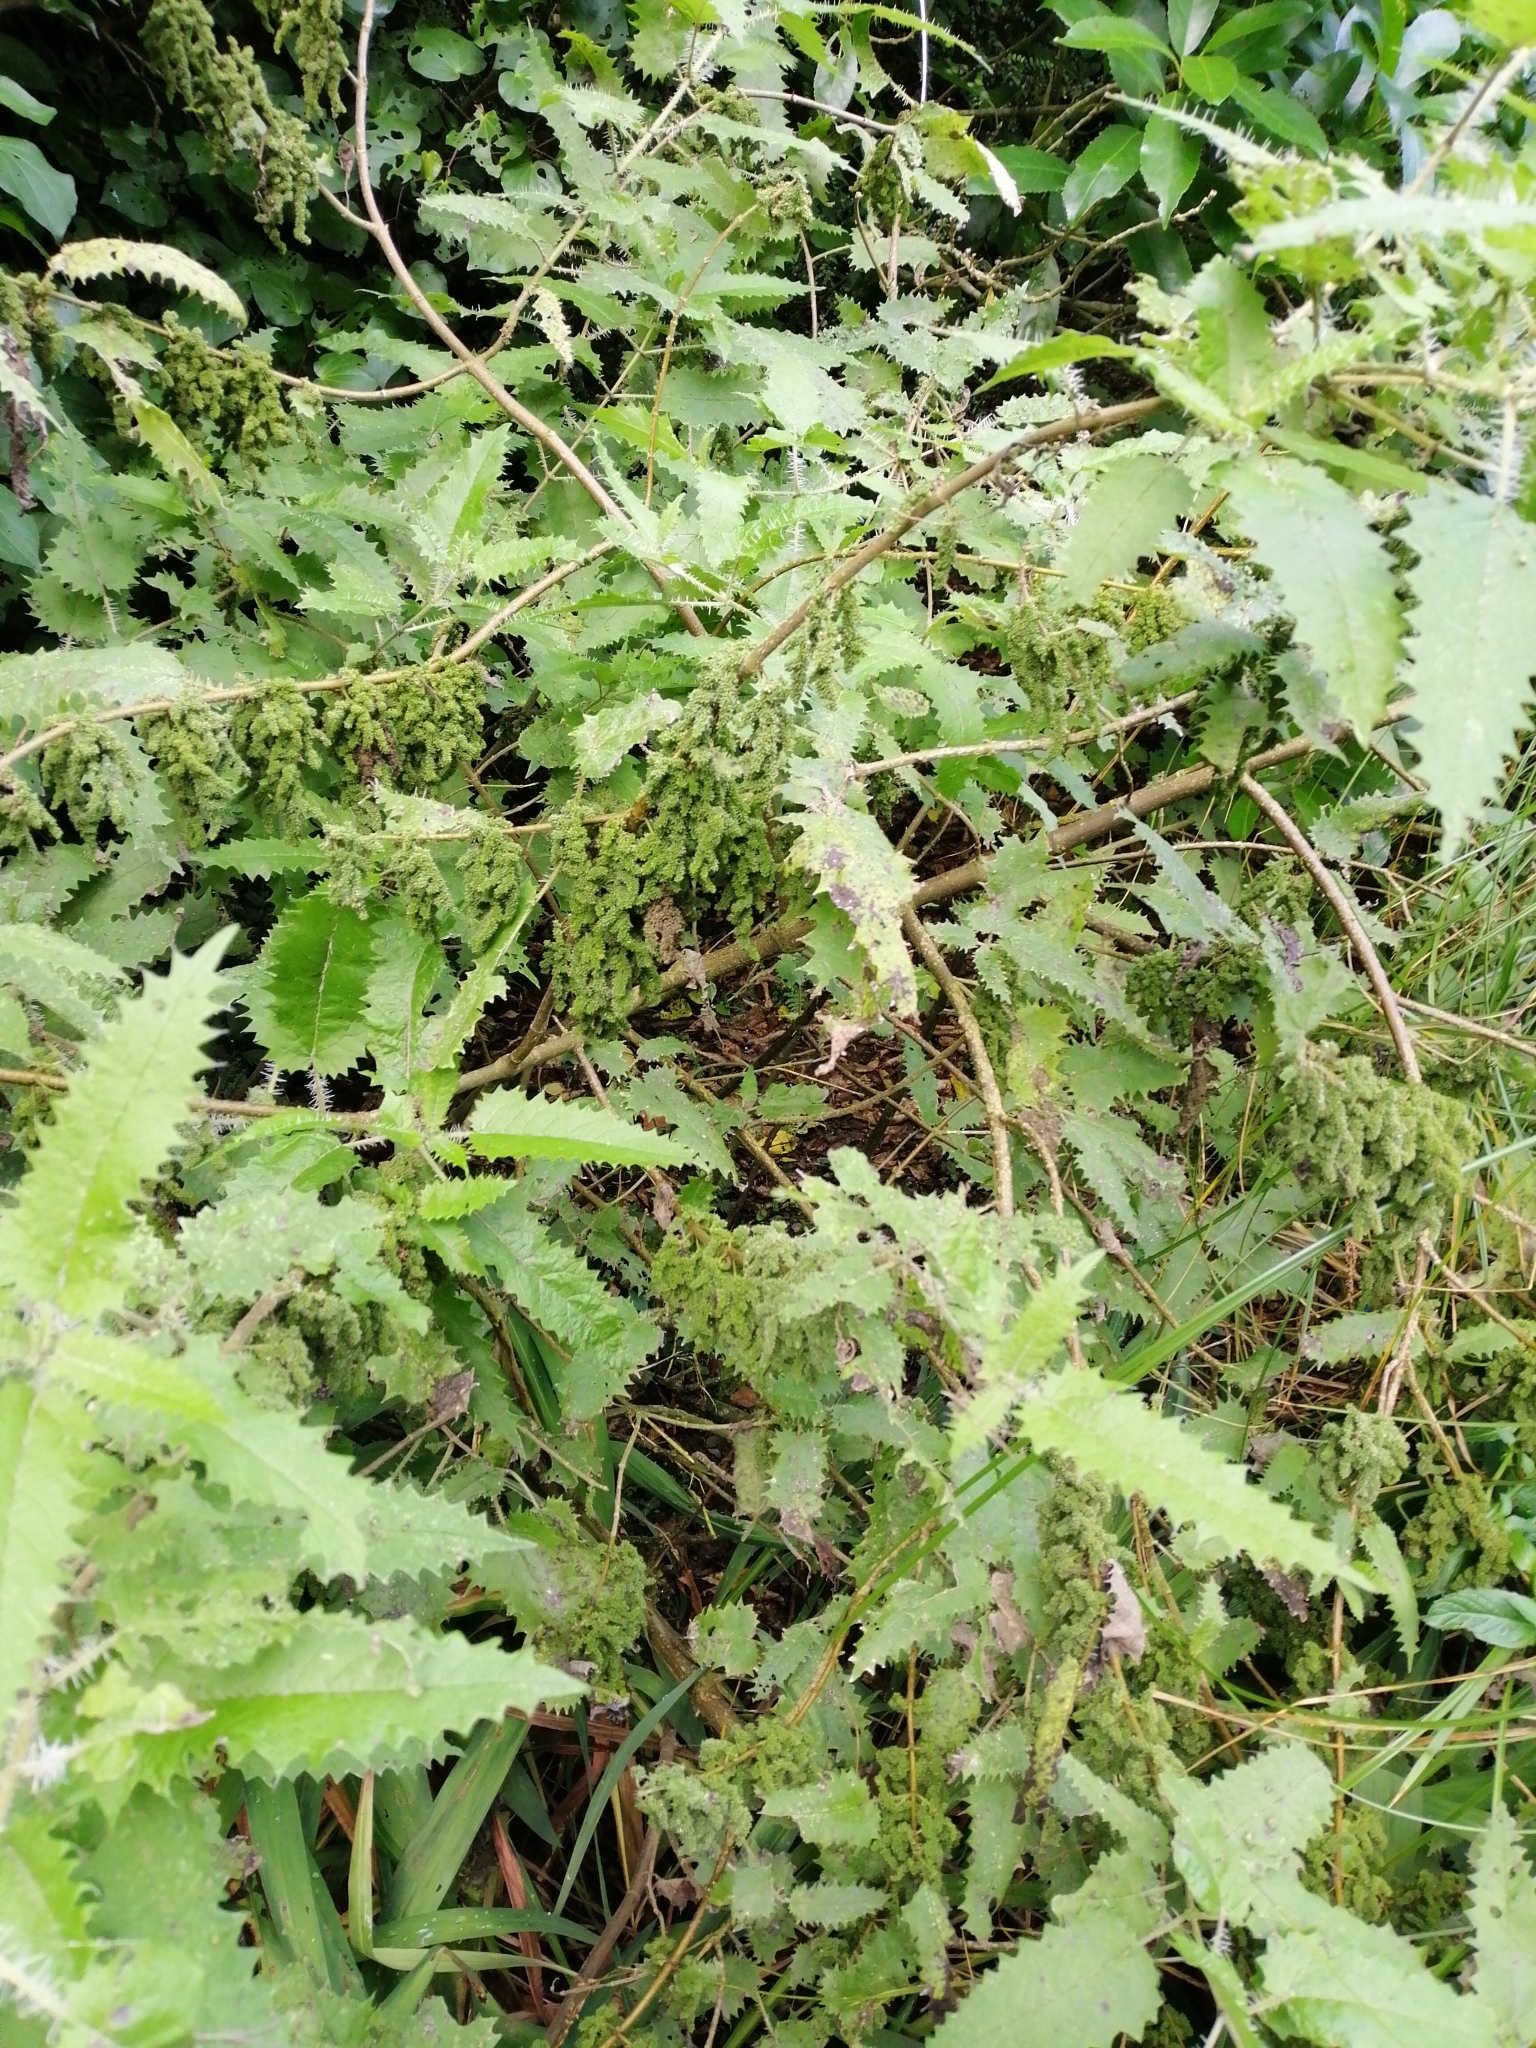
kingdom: Plantae
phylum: Tracheophyta
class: Magnoliopsida
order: Rosales
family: Urticaceae
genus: Urtica
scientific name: Urtica ferox
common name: Tree nettle
